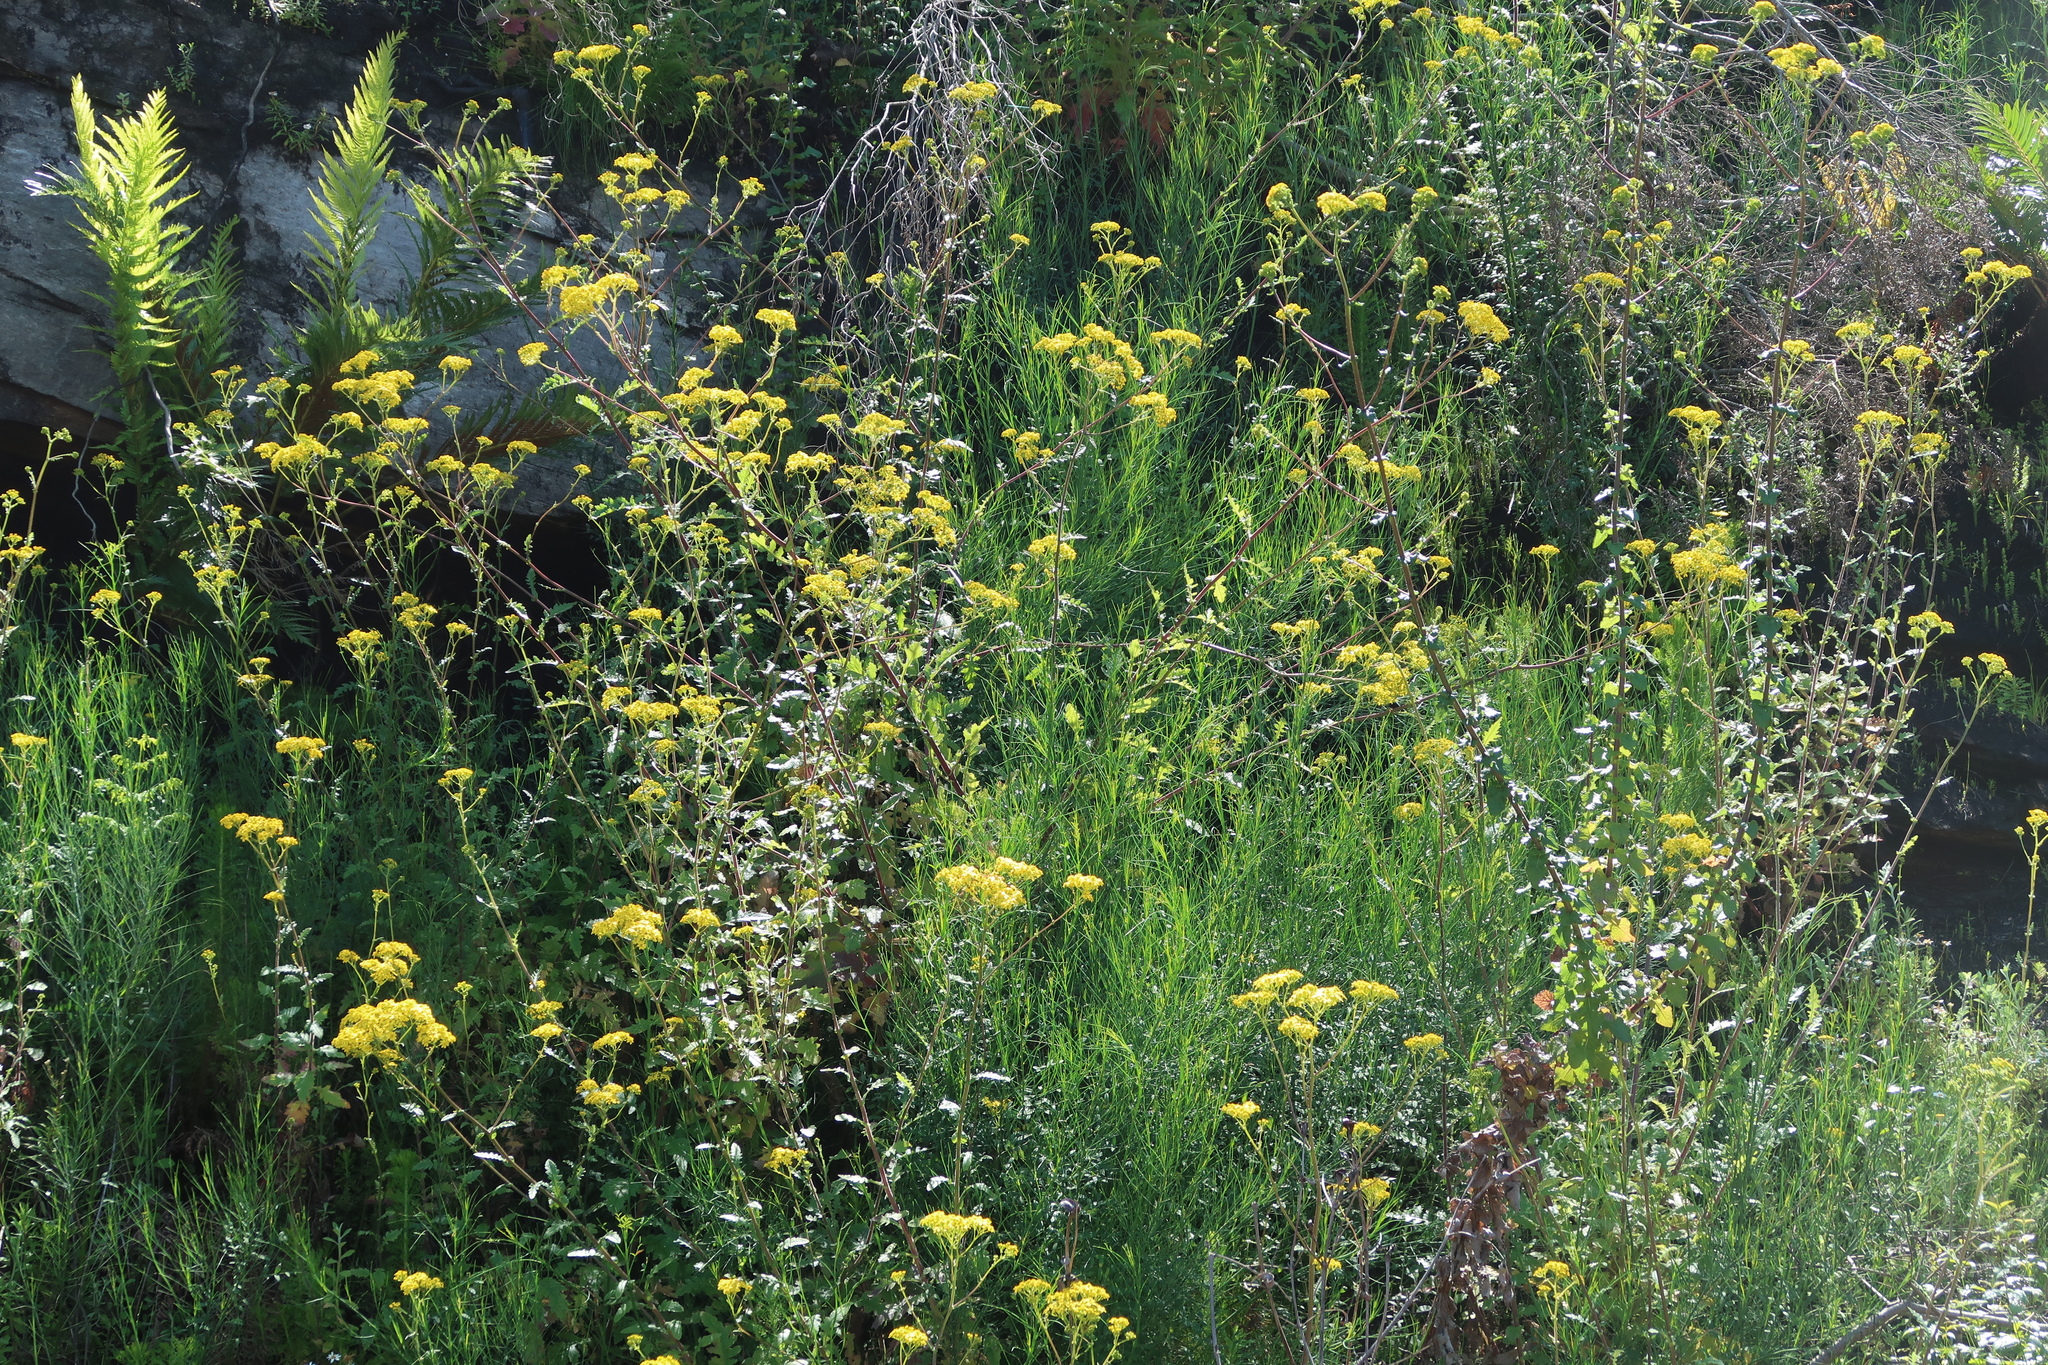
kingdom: Plantae
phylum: Tracheophyta
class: Magnoliopsida
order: Asterales
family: Asteraceae
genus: Senecio
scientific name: Senecio rigidus
